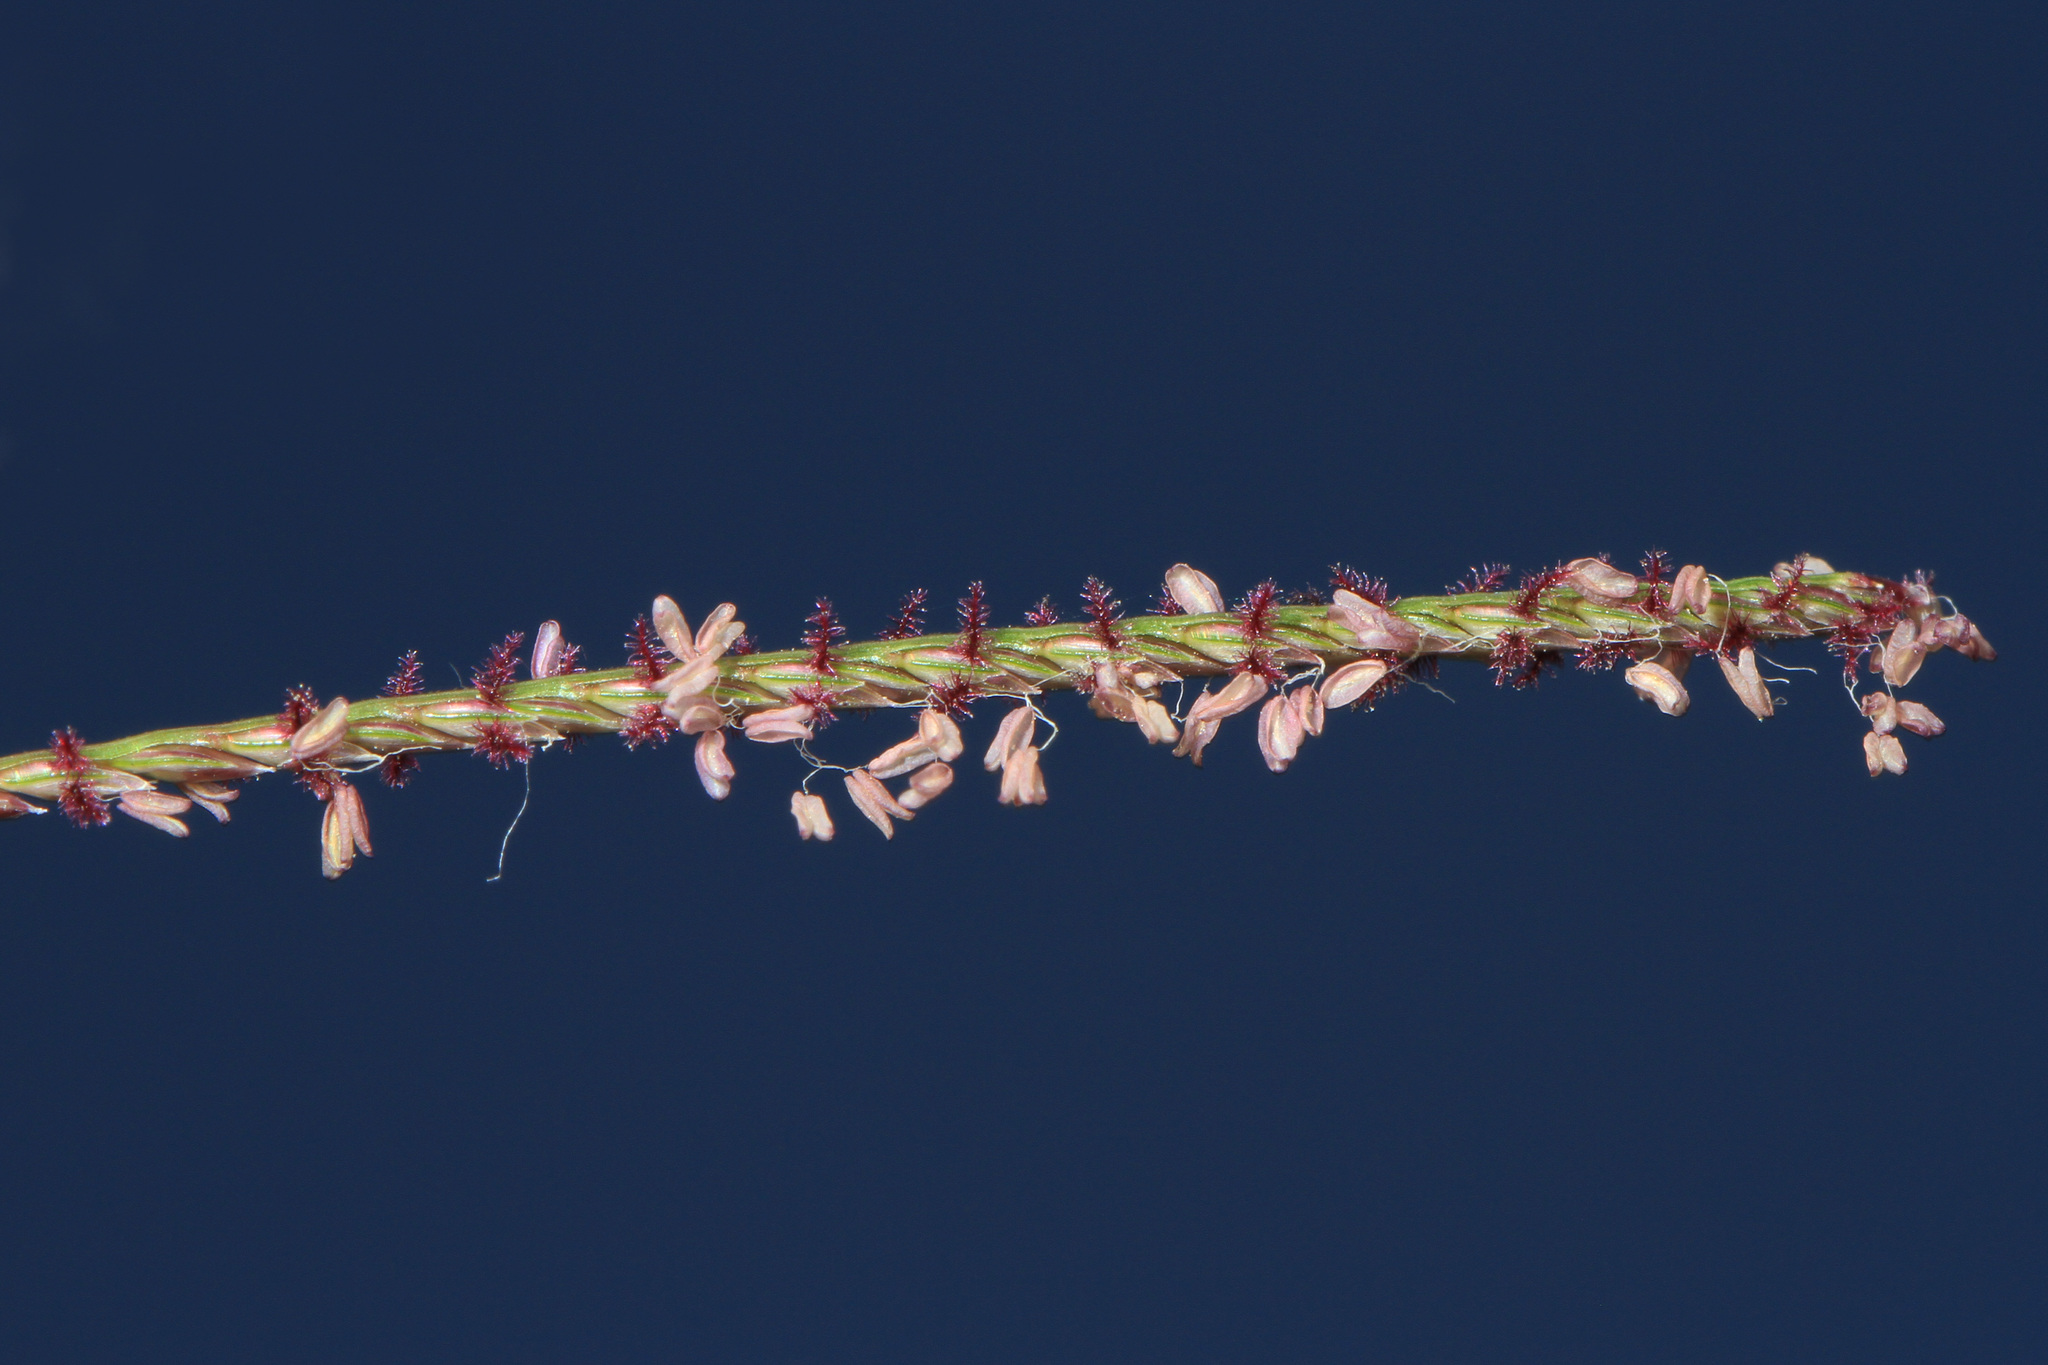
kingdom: Plantae
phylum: Tracheophyta
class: Liliopsida
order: Poales
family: Poaceae
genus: Cynodon
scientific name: Cynodon dactylon
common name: Bermuda grass
